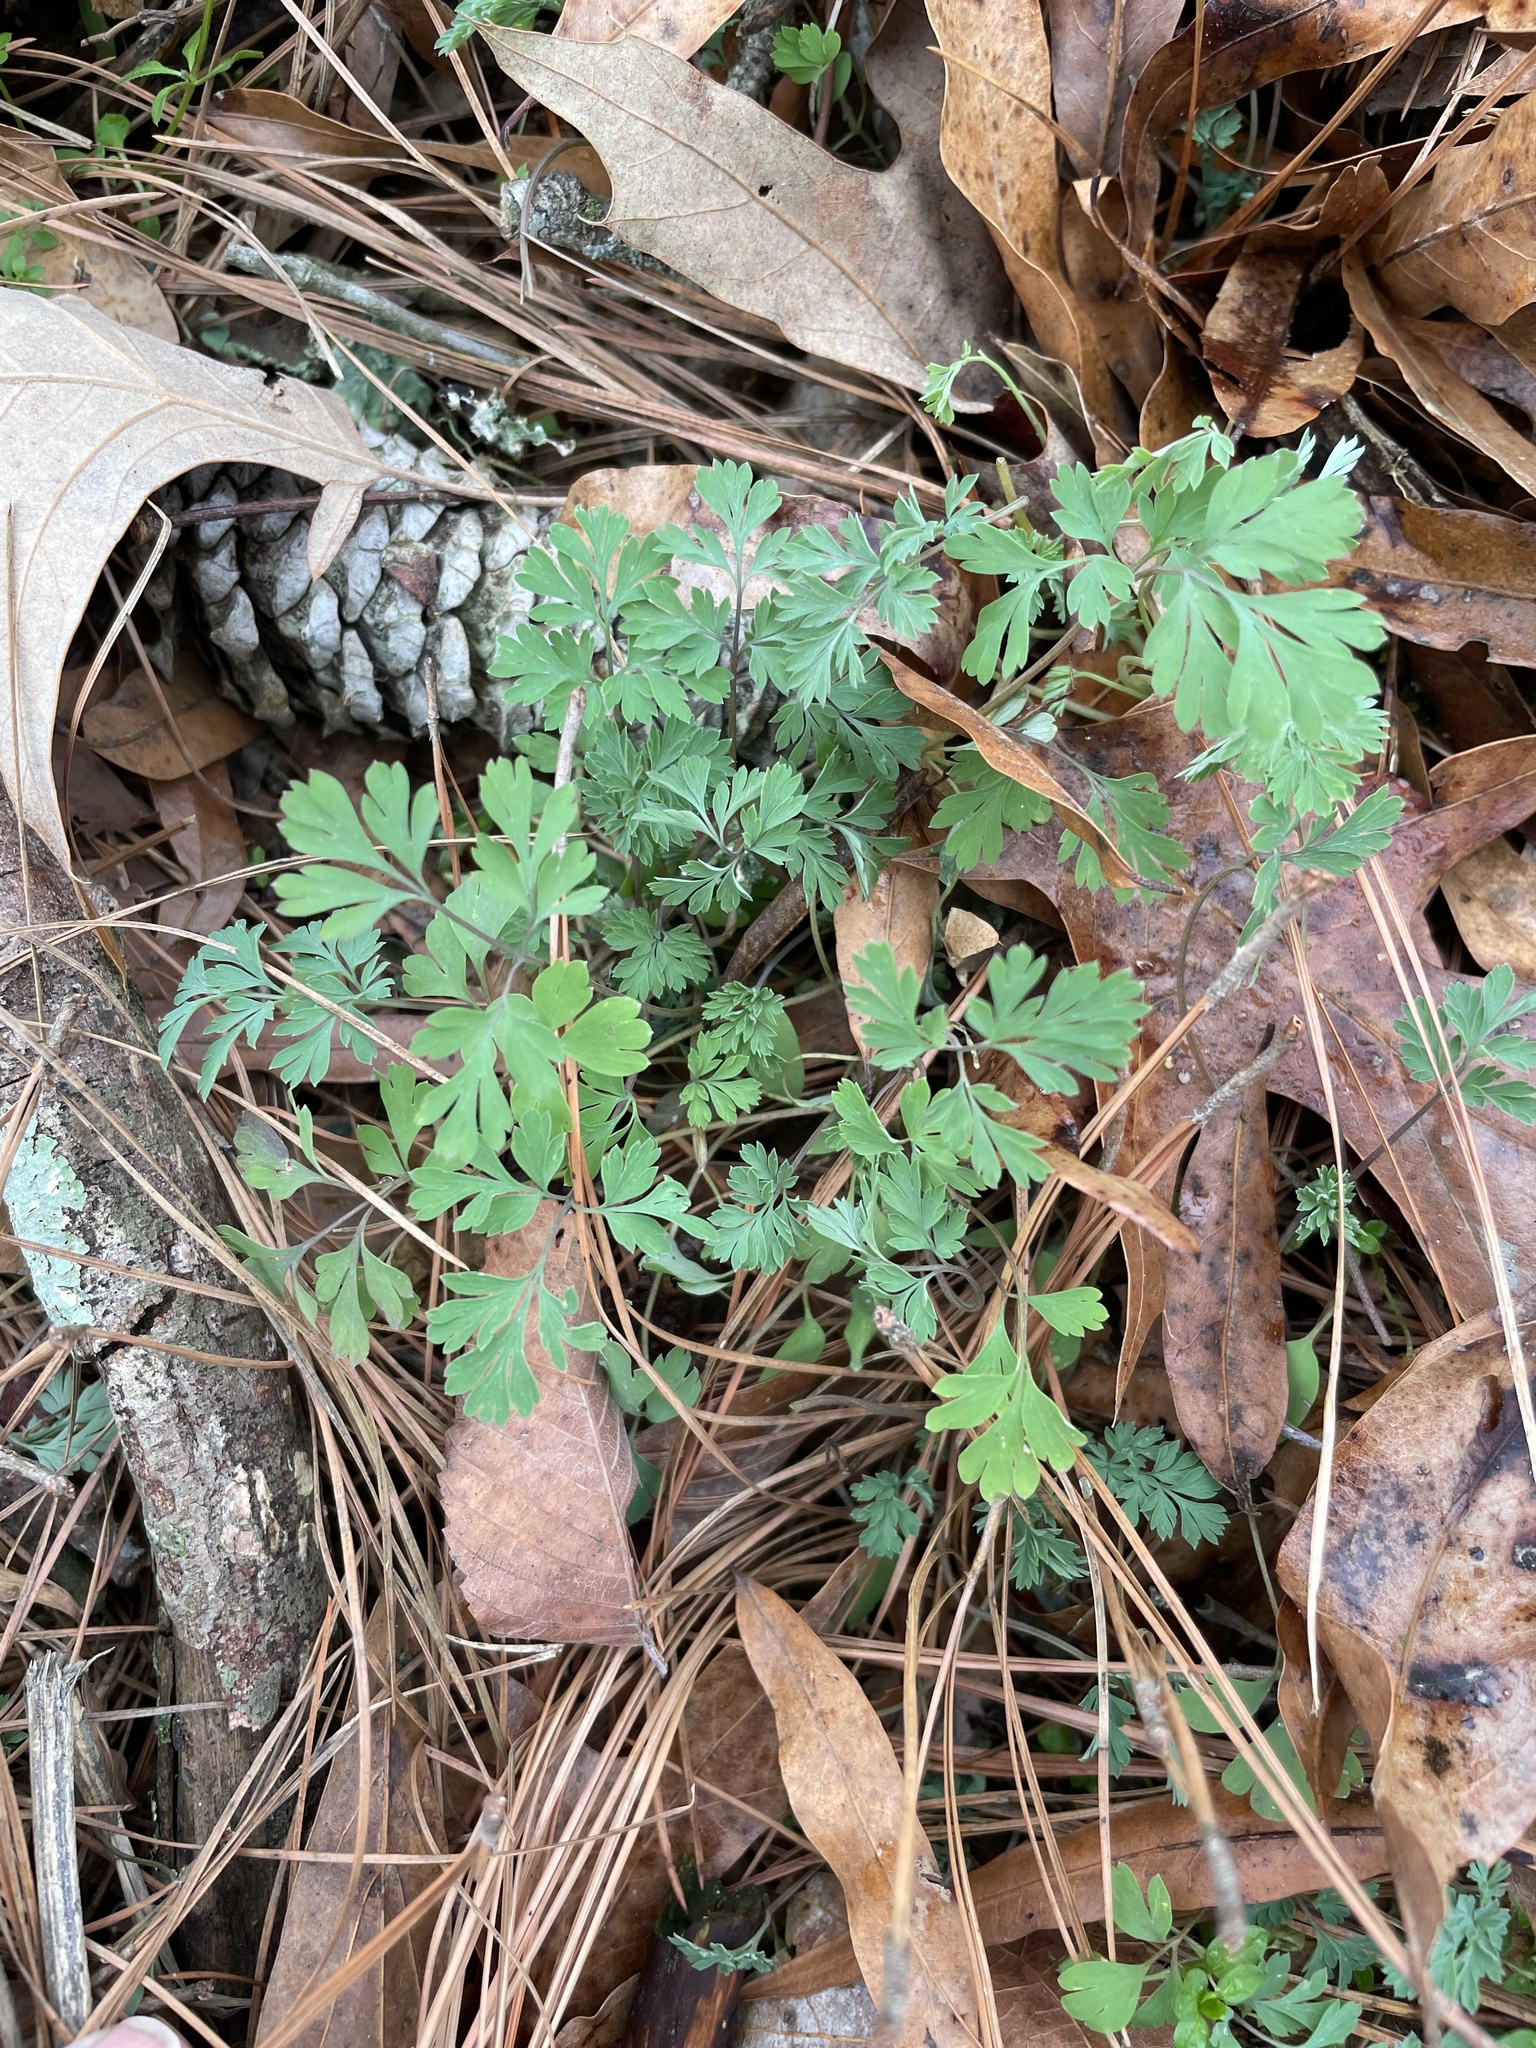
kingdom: Plantae
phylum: Tracheophyta
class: Magnoliopsida
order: Ranunculales
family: Papaveraceae
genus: Corydalis
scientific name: Corydalis flavula
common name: Yellow corydalis
